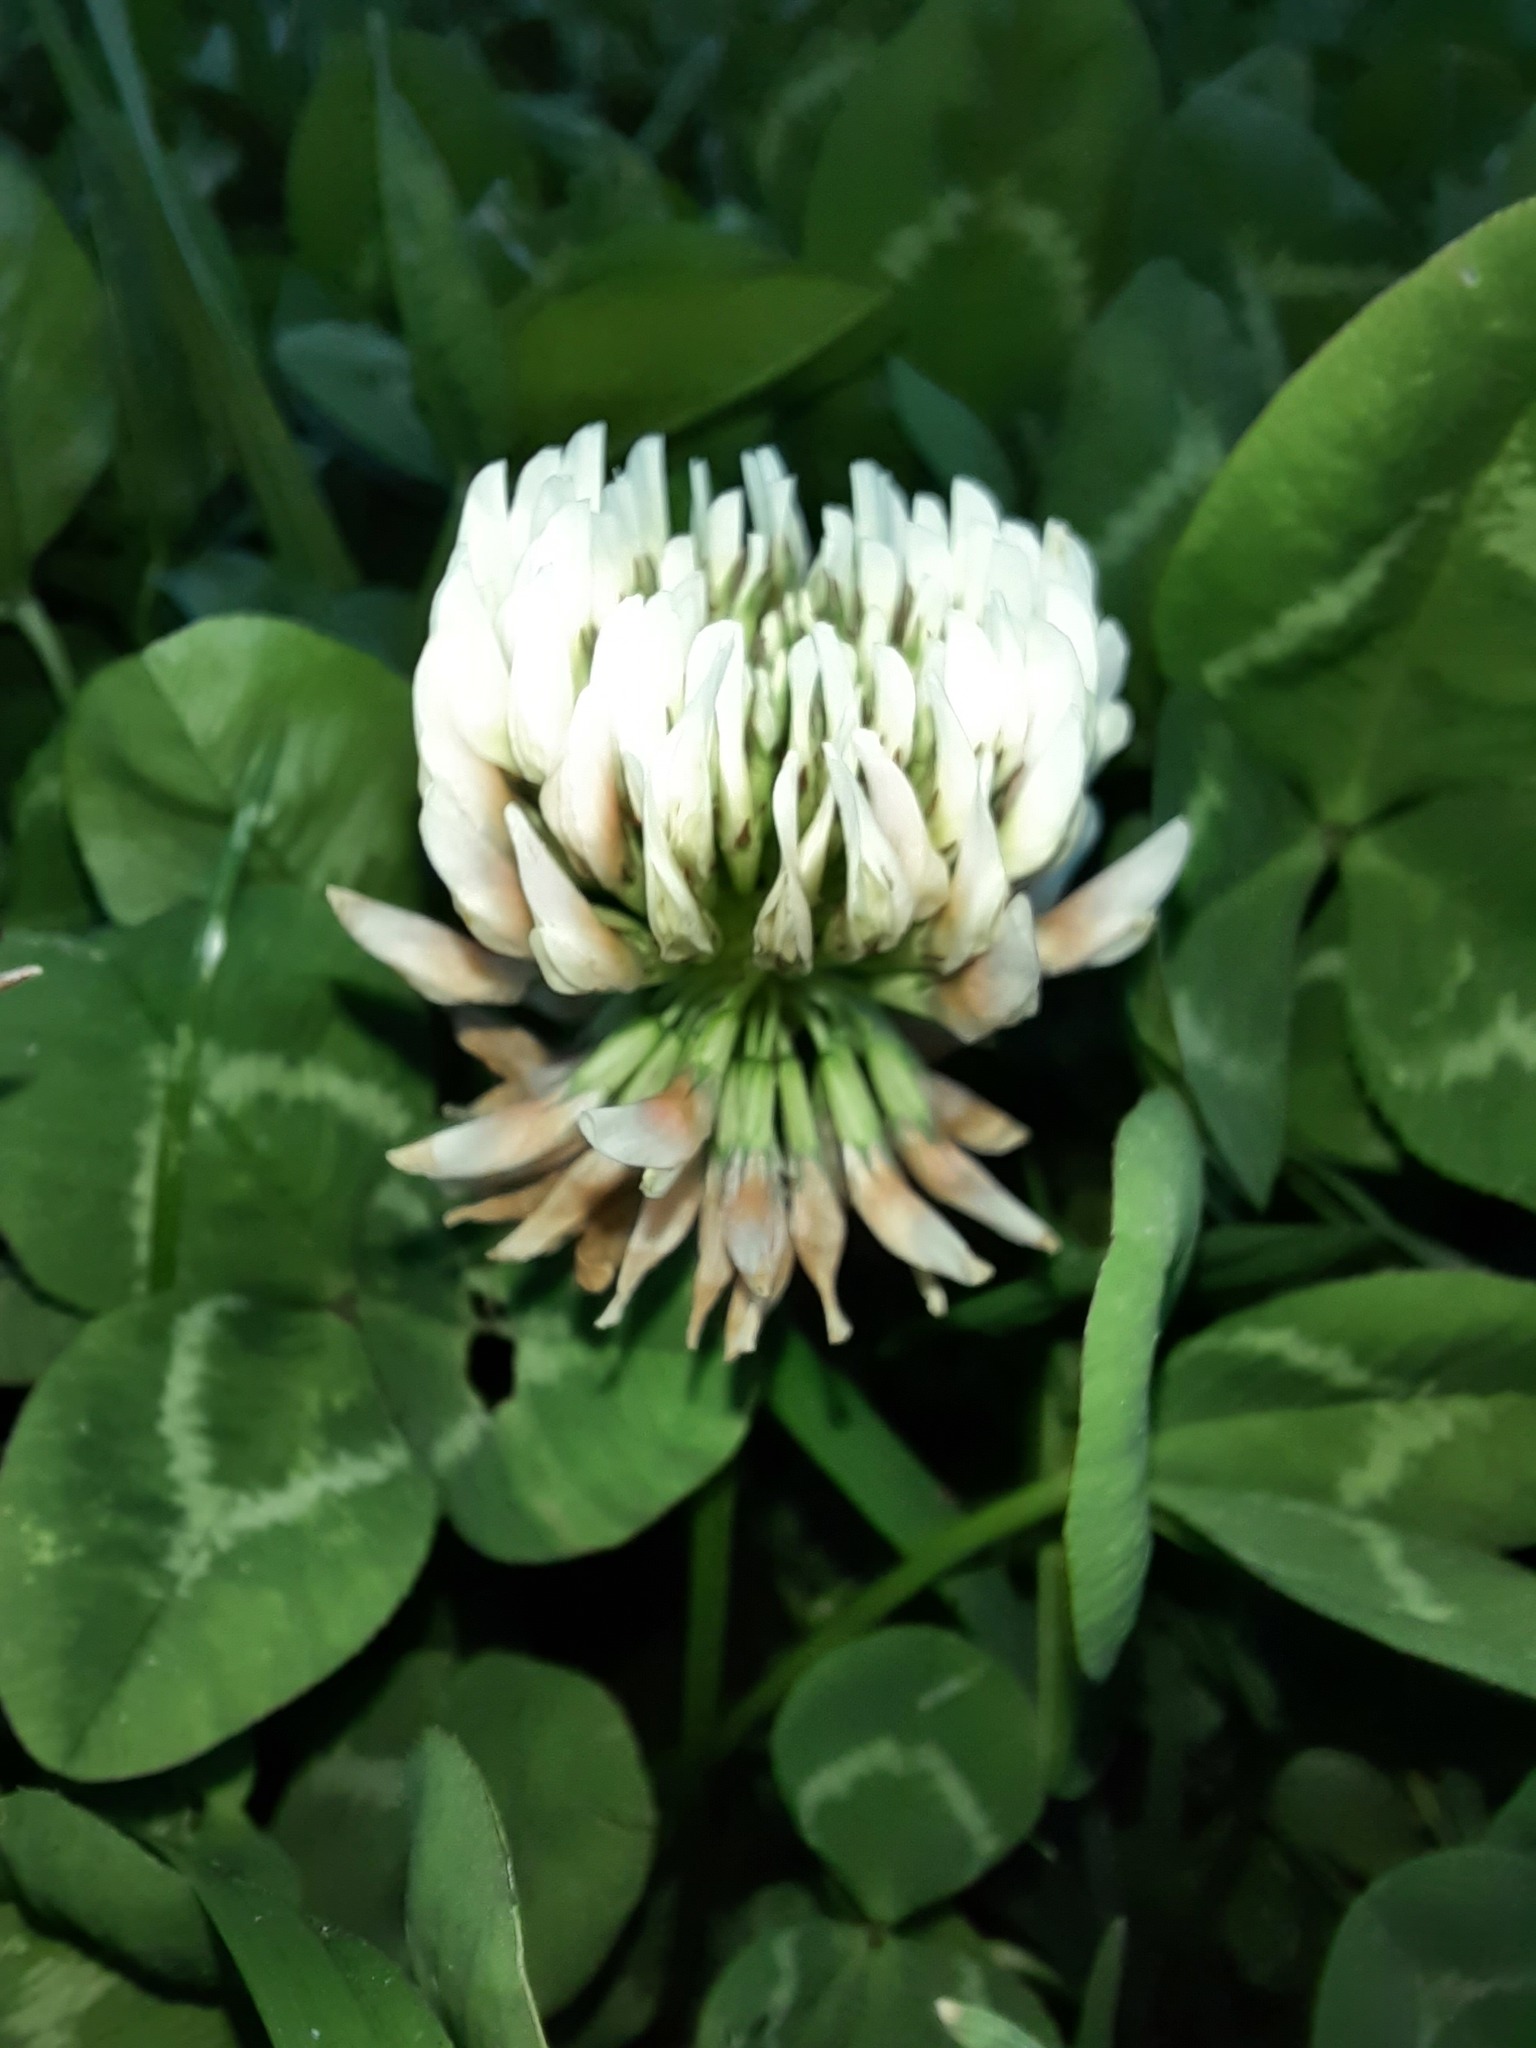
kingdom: Plantae
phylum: Tracheophyta
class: Magnoliopsida
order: Fabales
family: Fabaceae
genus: Trifolium
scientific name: Trifolium repens
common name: White clover
